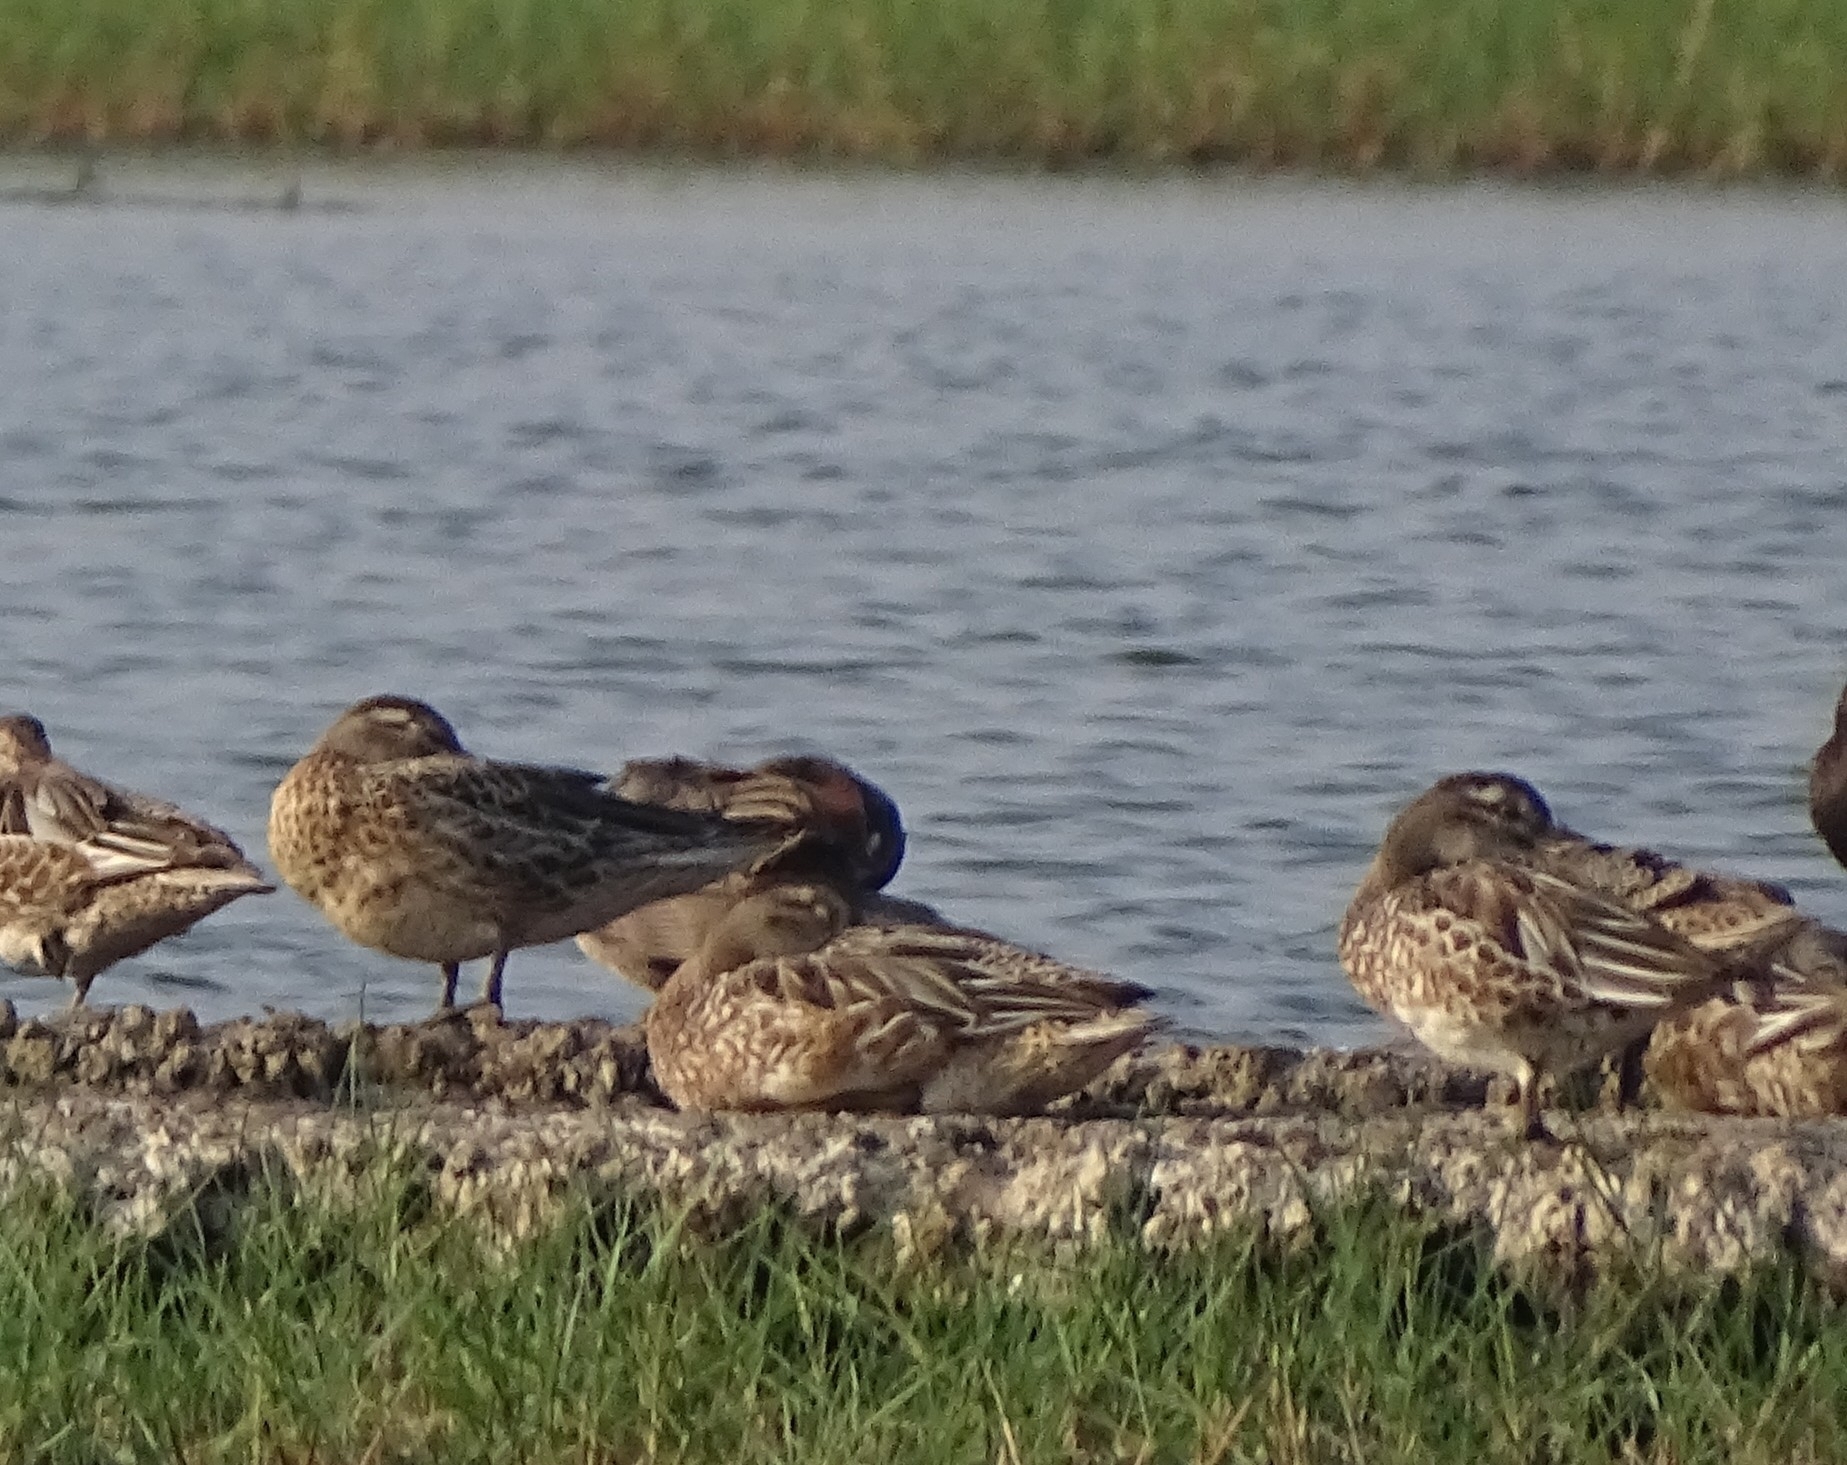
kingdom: Animalia
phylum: Chordata
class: Aves
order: Anseriformes
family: Anatidae
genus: Spatula
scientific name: Spatula querquedula
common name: Garganey
